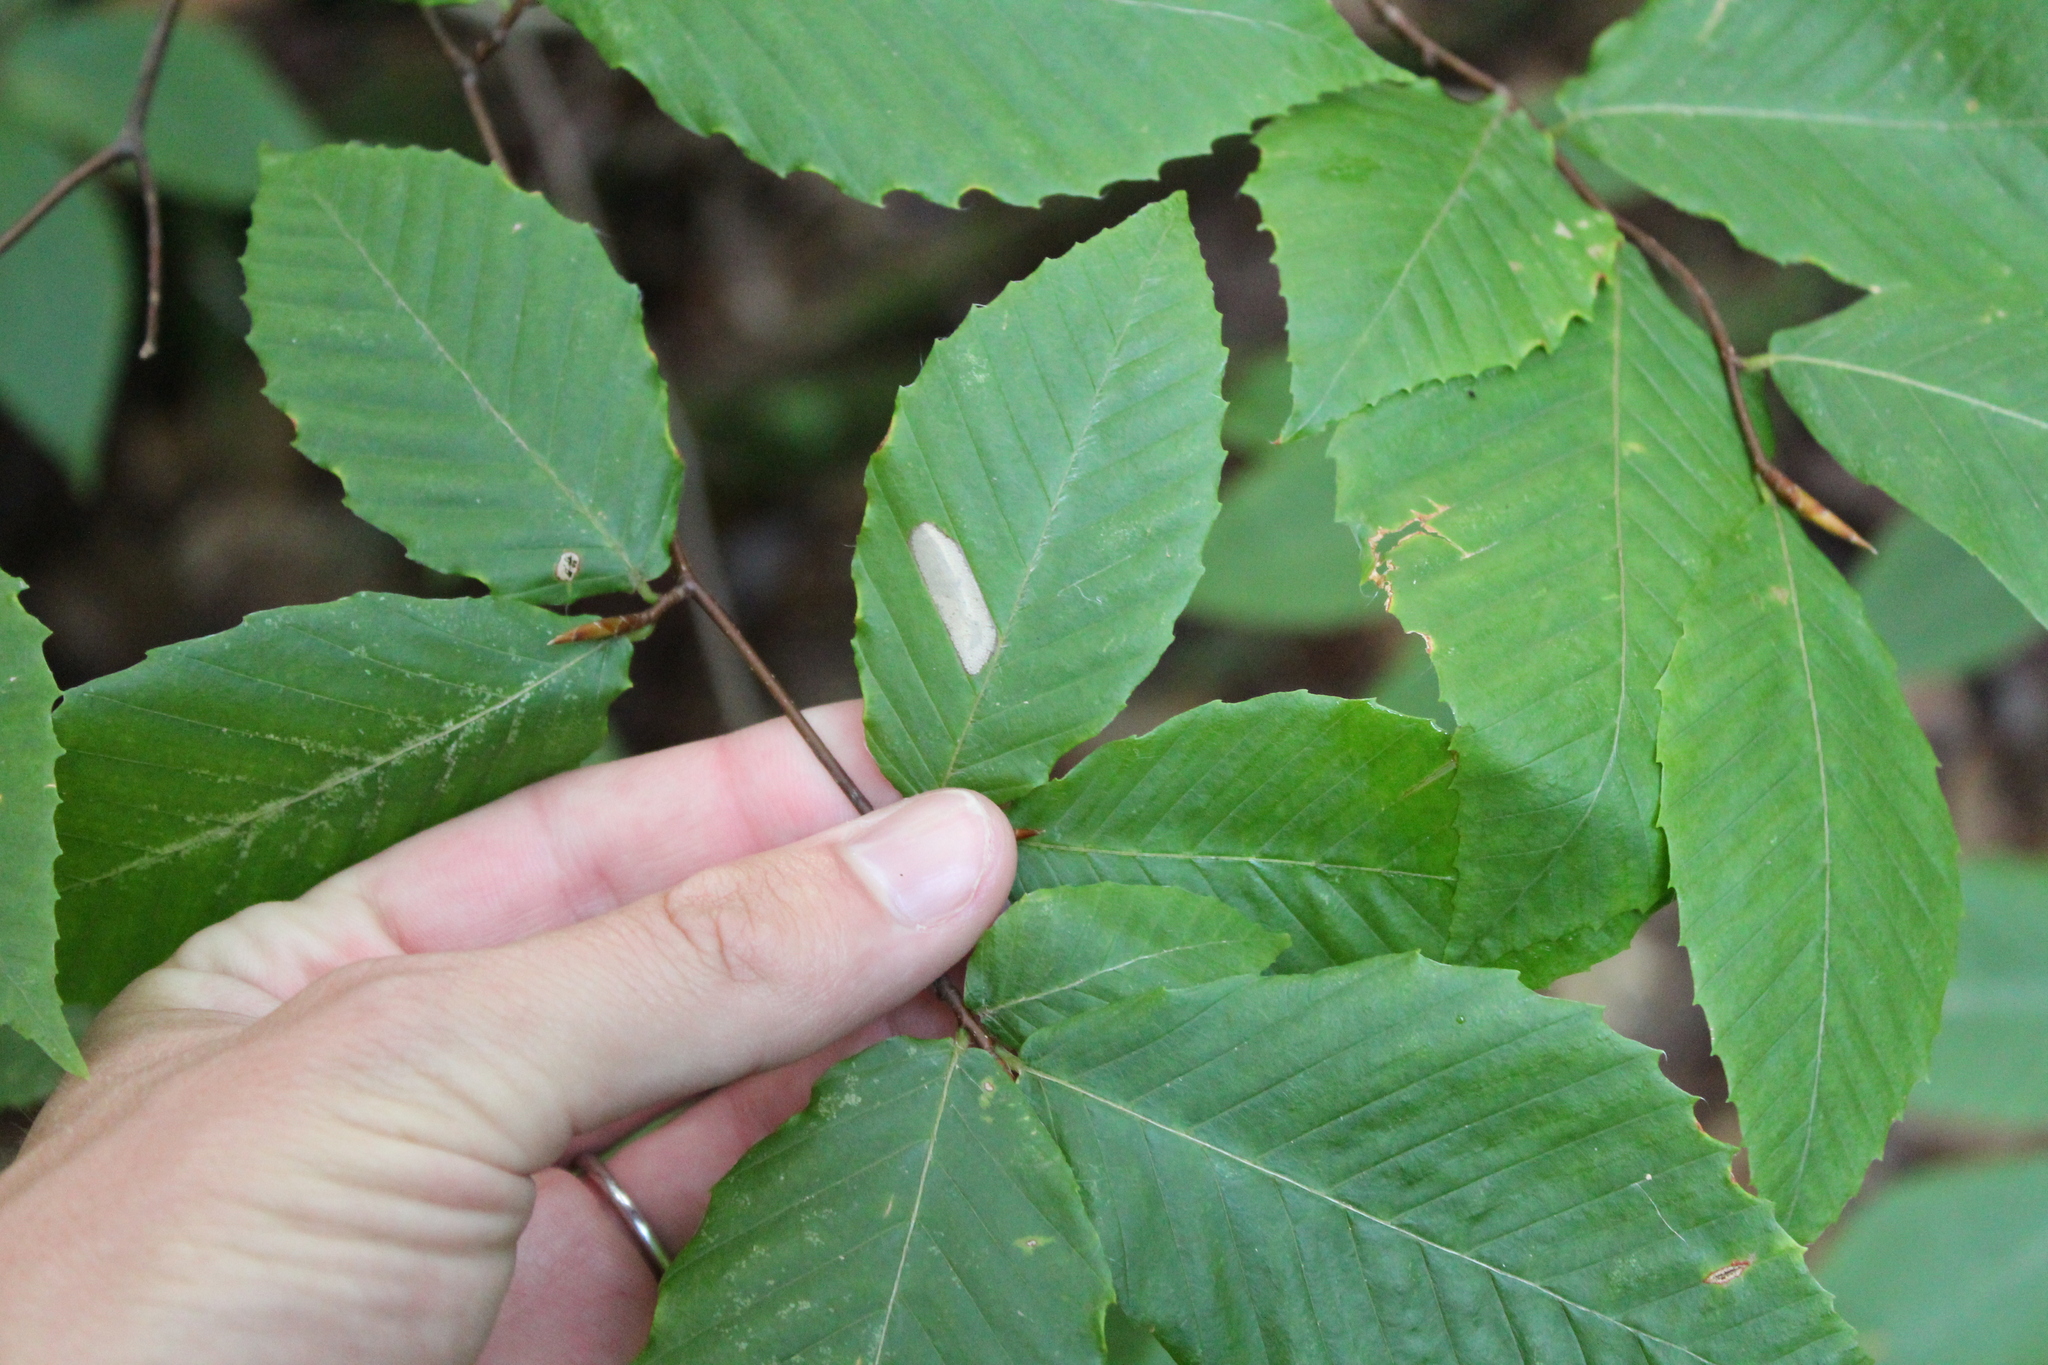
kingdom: Plantae
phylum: Tracheophyta
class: Magnoliopsida
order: Fagales
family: Fagaceae
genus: Fagus
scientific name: Fagus grandifolia
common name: American beech
